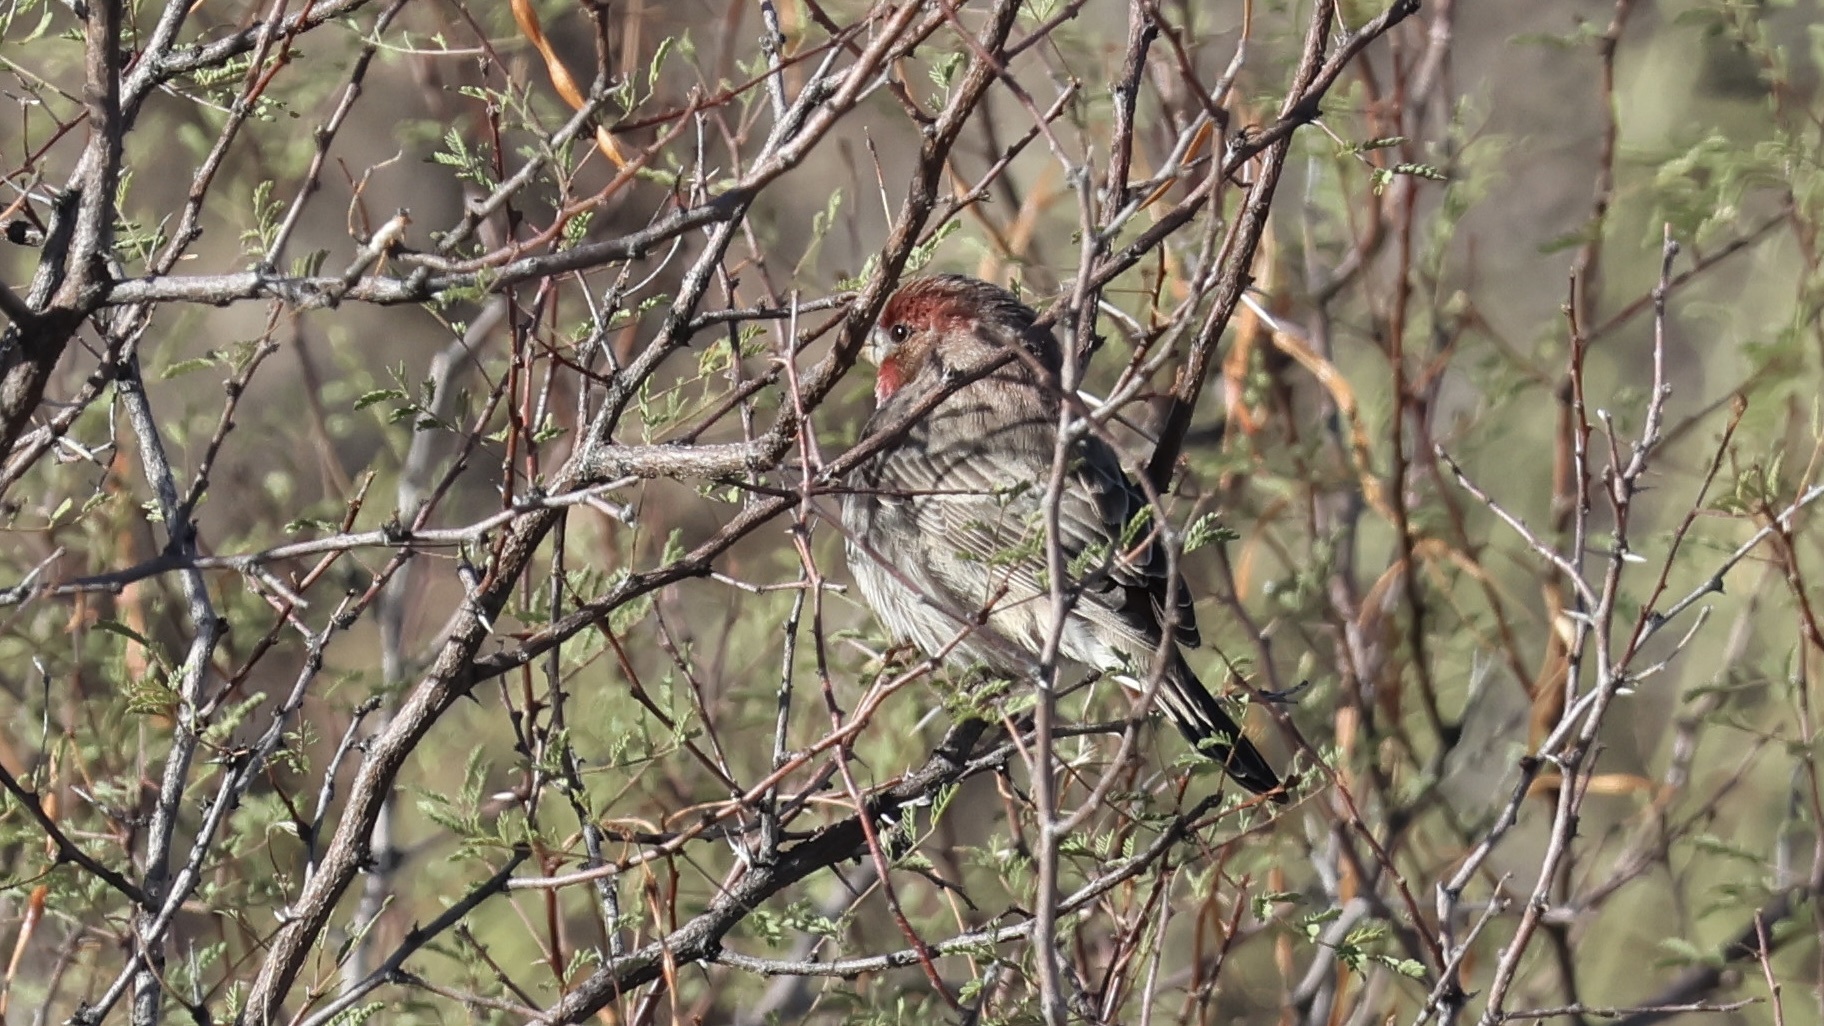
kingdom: Animalia
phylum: Chordata
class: Aves
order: Passeriformes
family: Fringillidae
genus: Haemorhous
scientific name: Haemorhous mexicanus
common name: House finch
